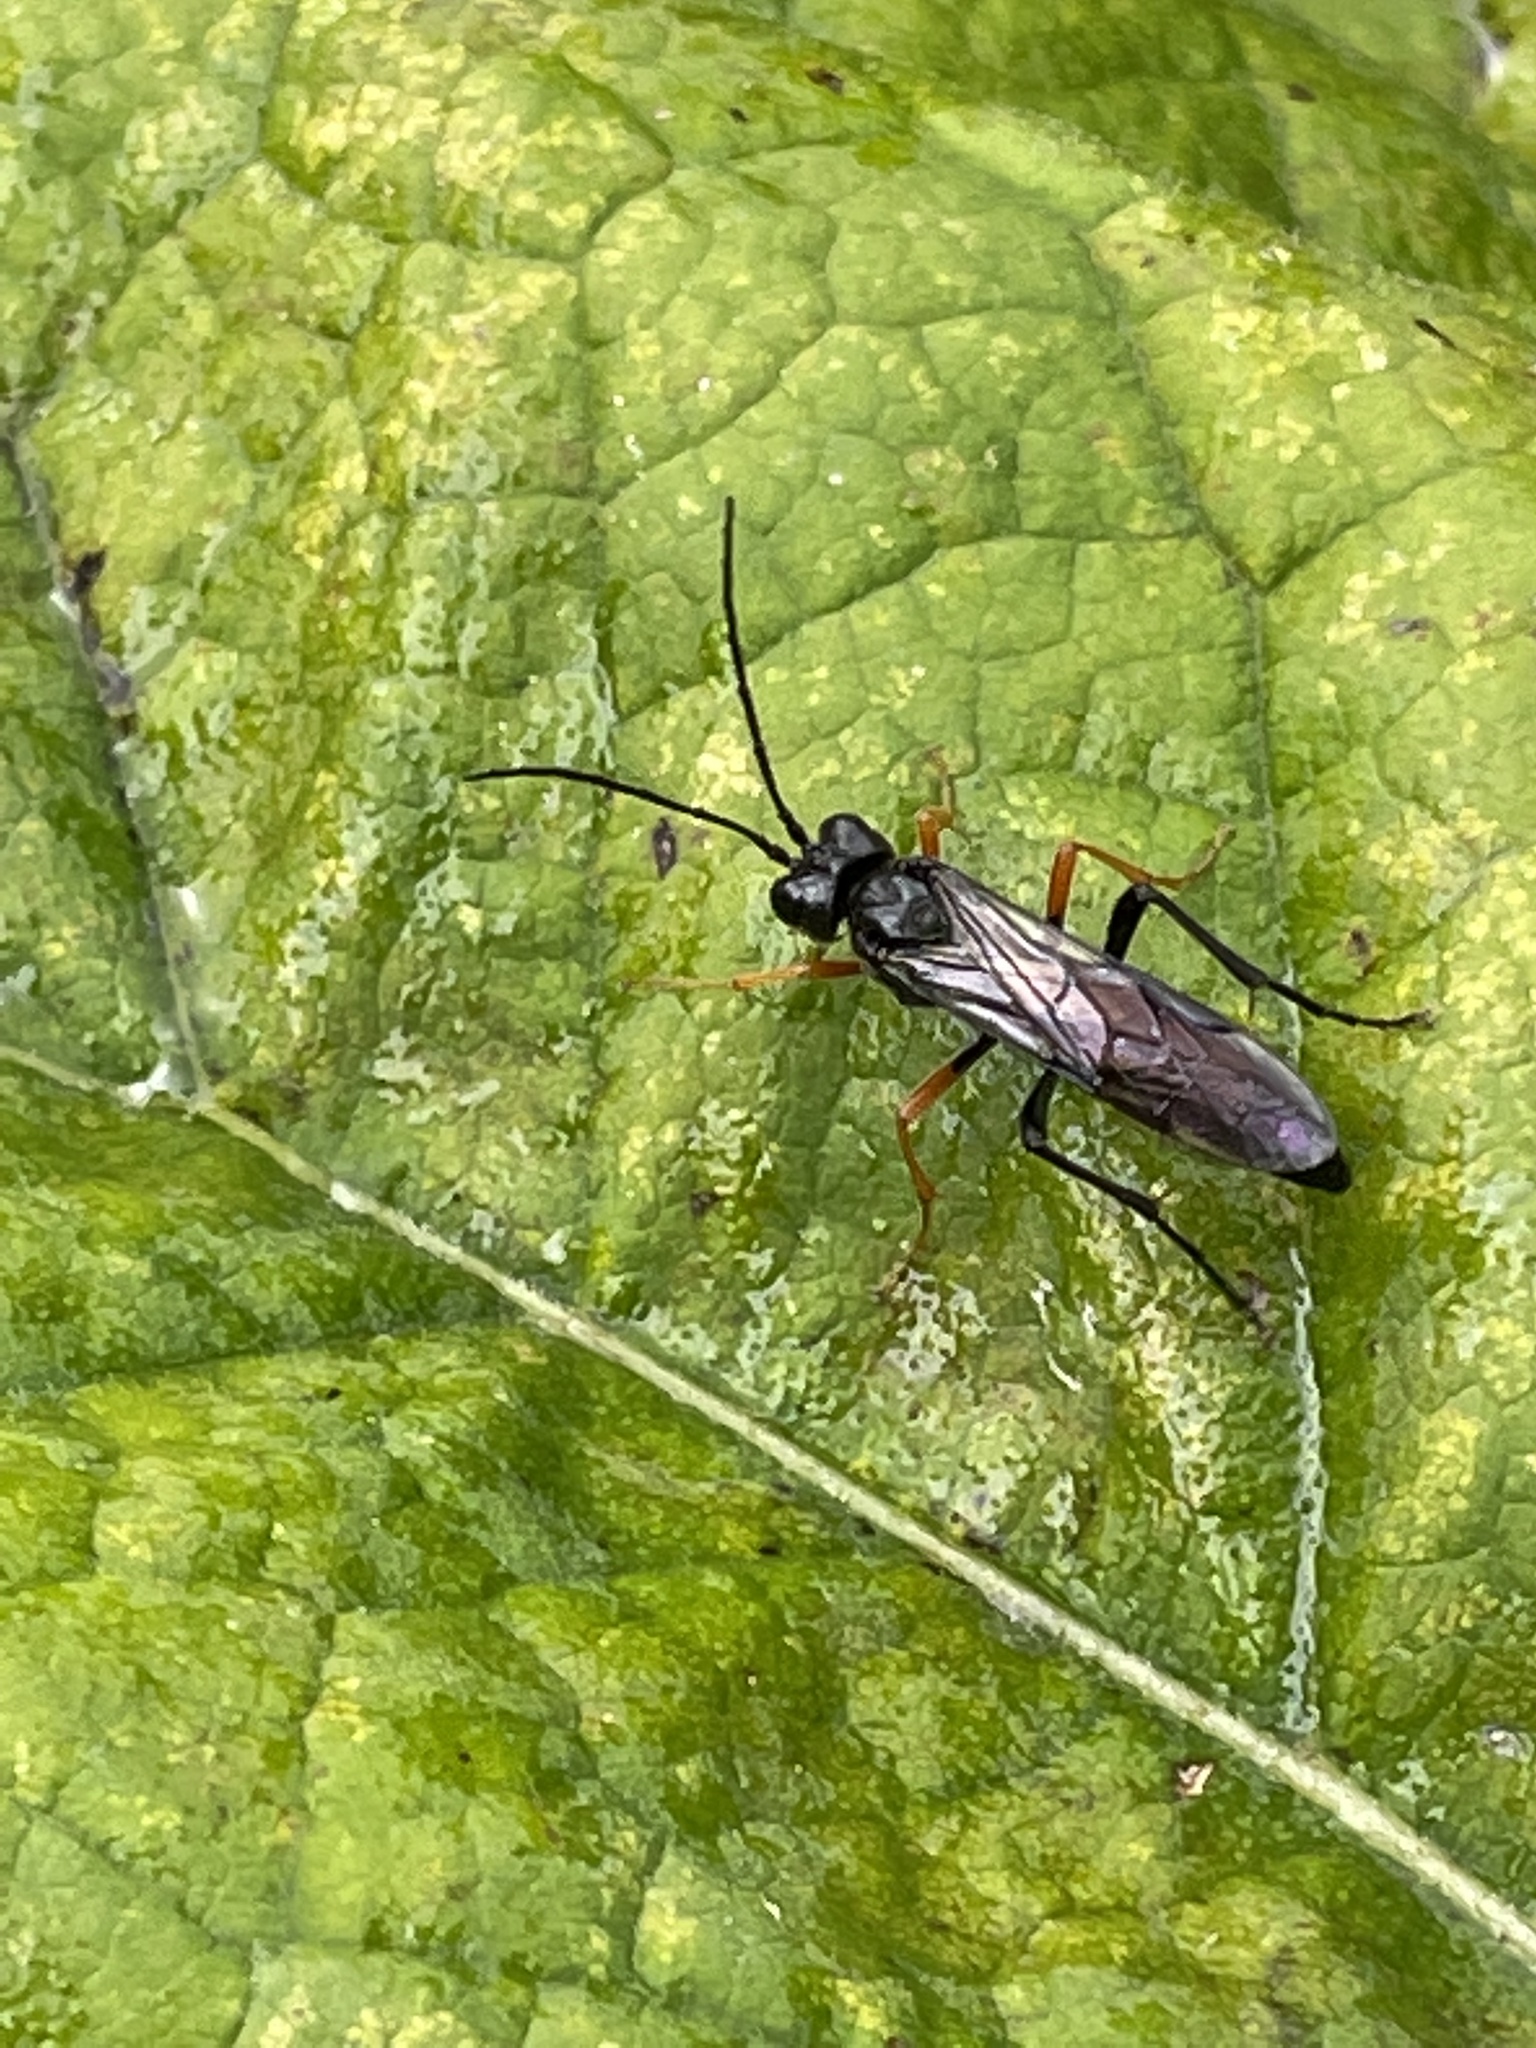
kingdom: Animalia
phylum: Arthropoda
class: Insecta
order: Hymenoptera
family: Tenthredinidae
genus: Tenthredo
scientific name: Tenthredo mandibularis
